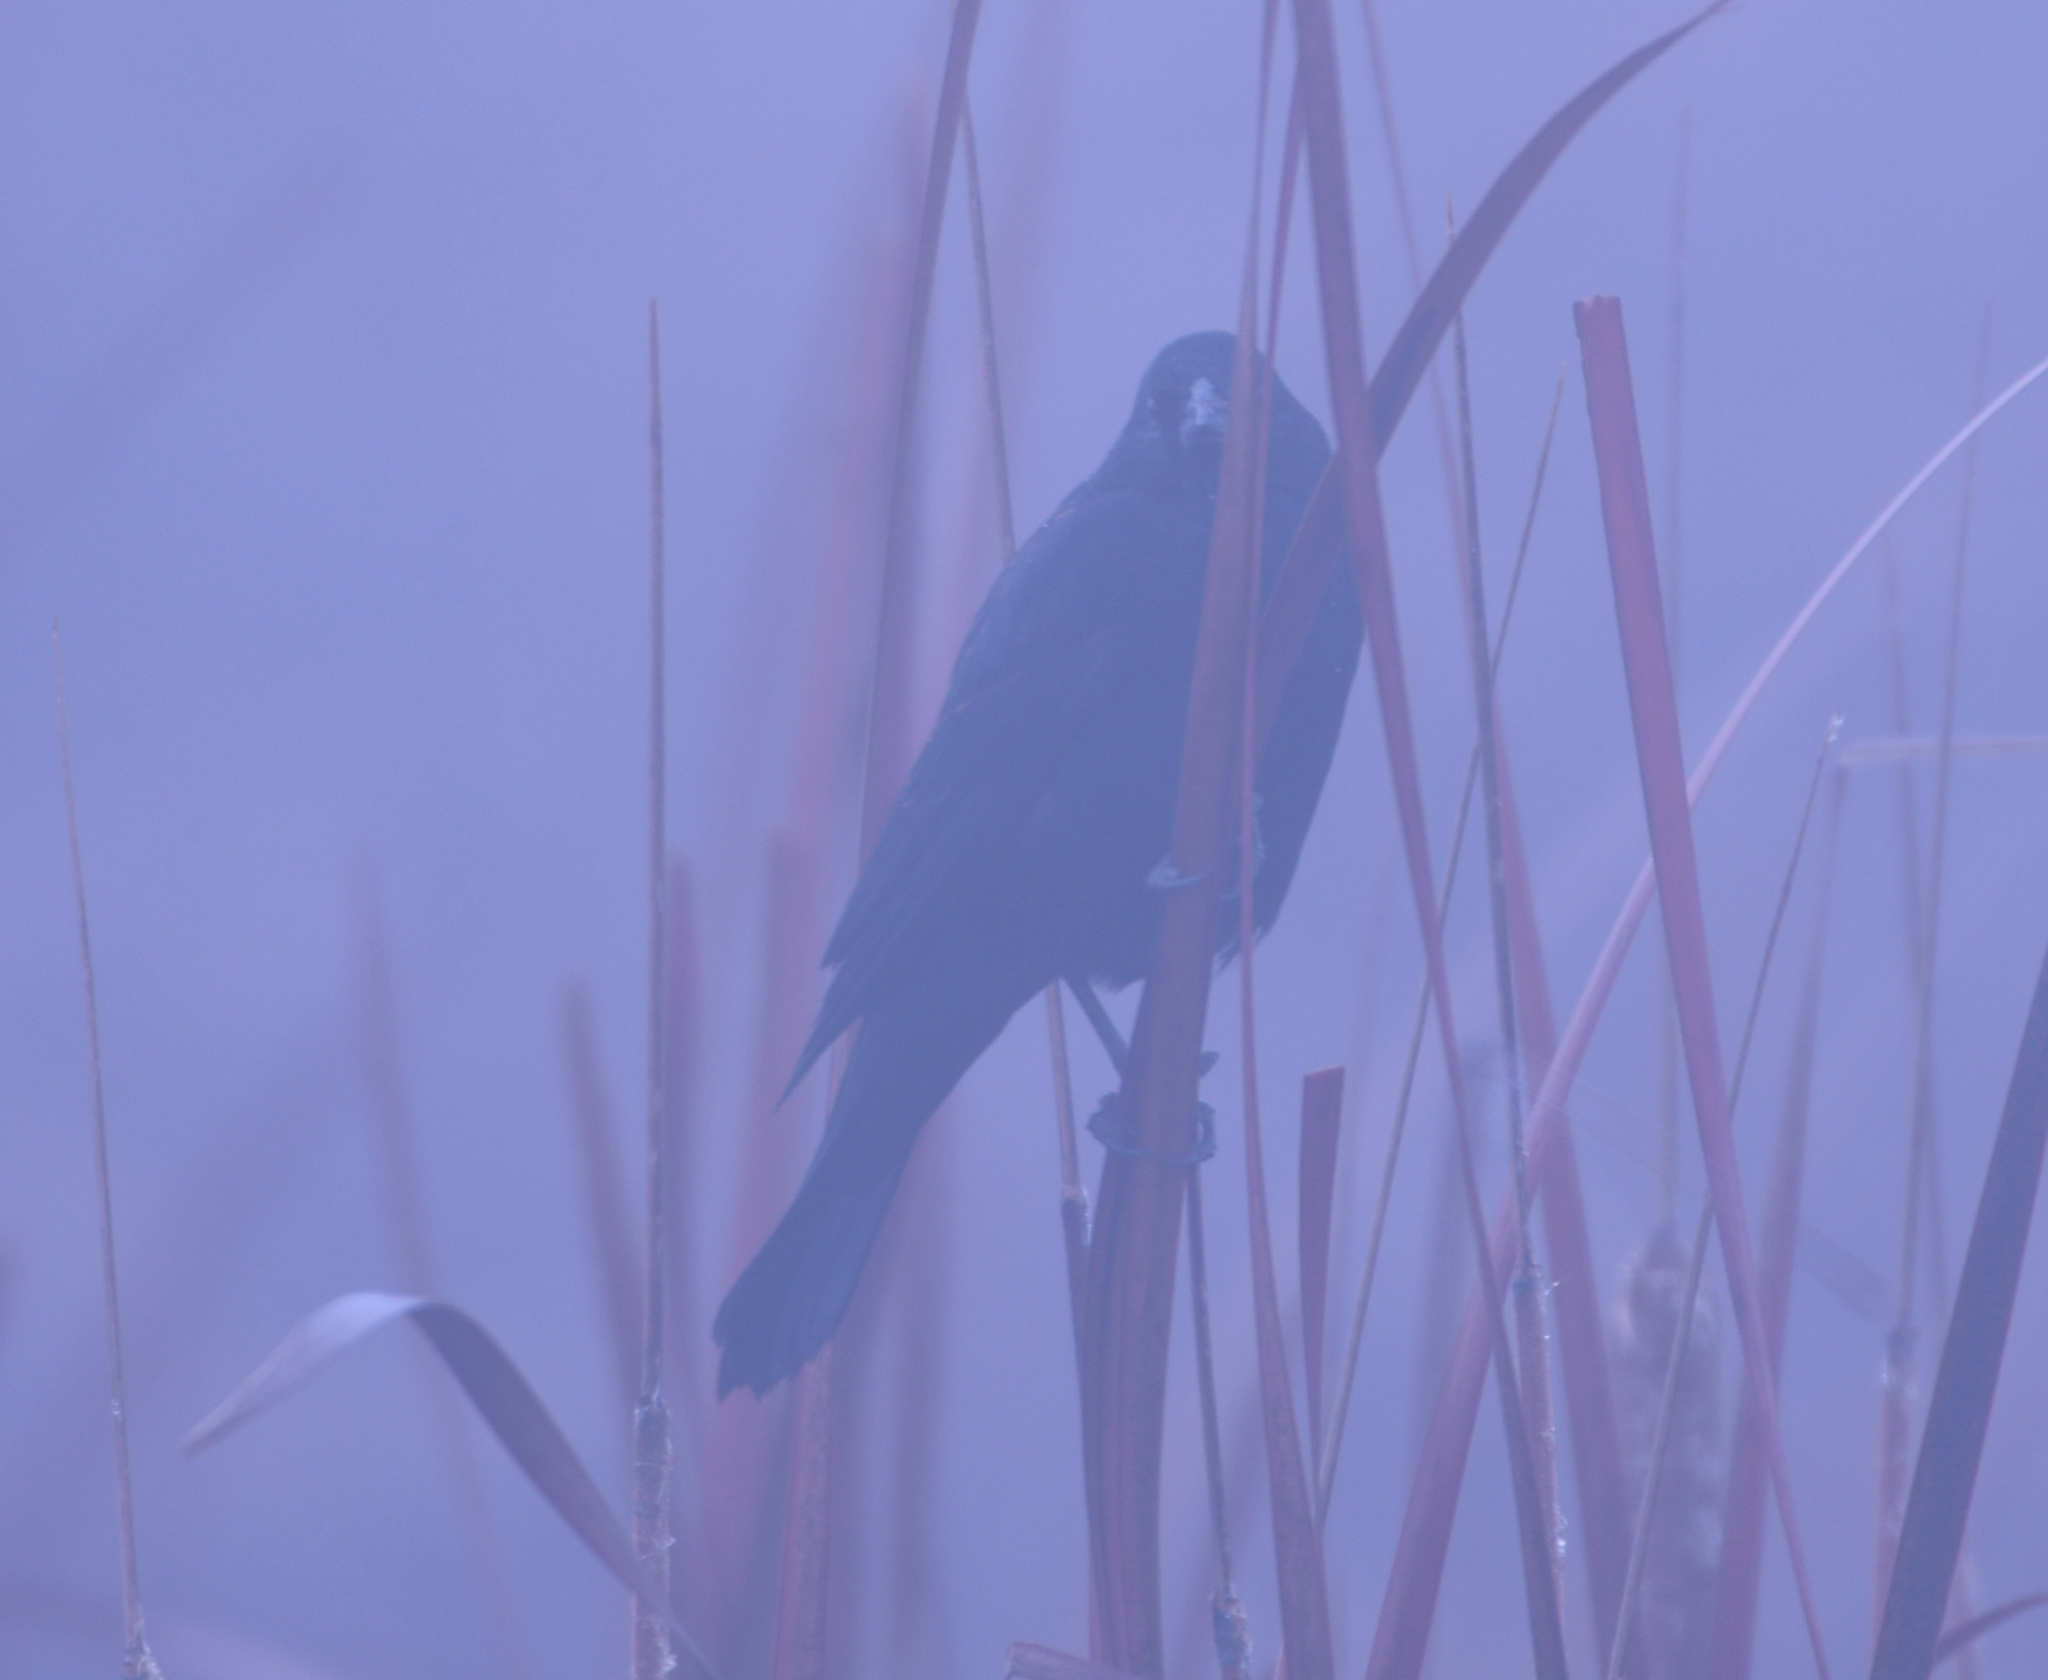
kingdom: Animalia
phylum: Chordata
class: Aves
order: Passeriformes
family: Icteridae
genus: Agelaius
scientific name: Agelaius phoeniceus
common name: Red-winged blackbird
